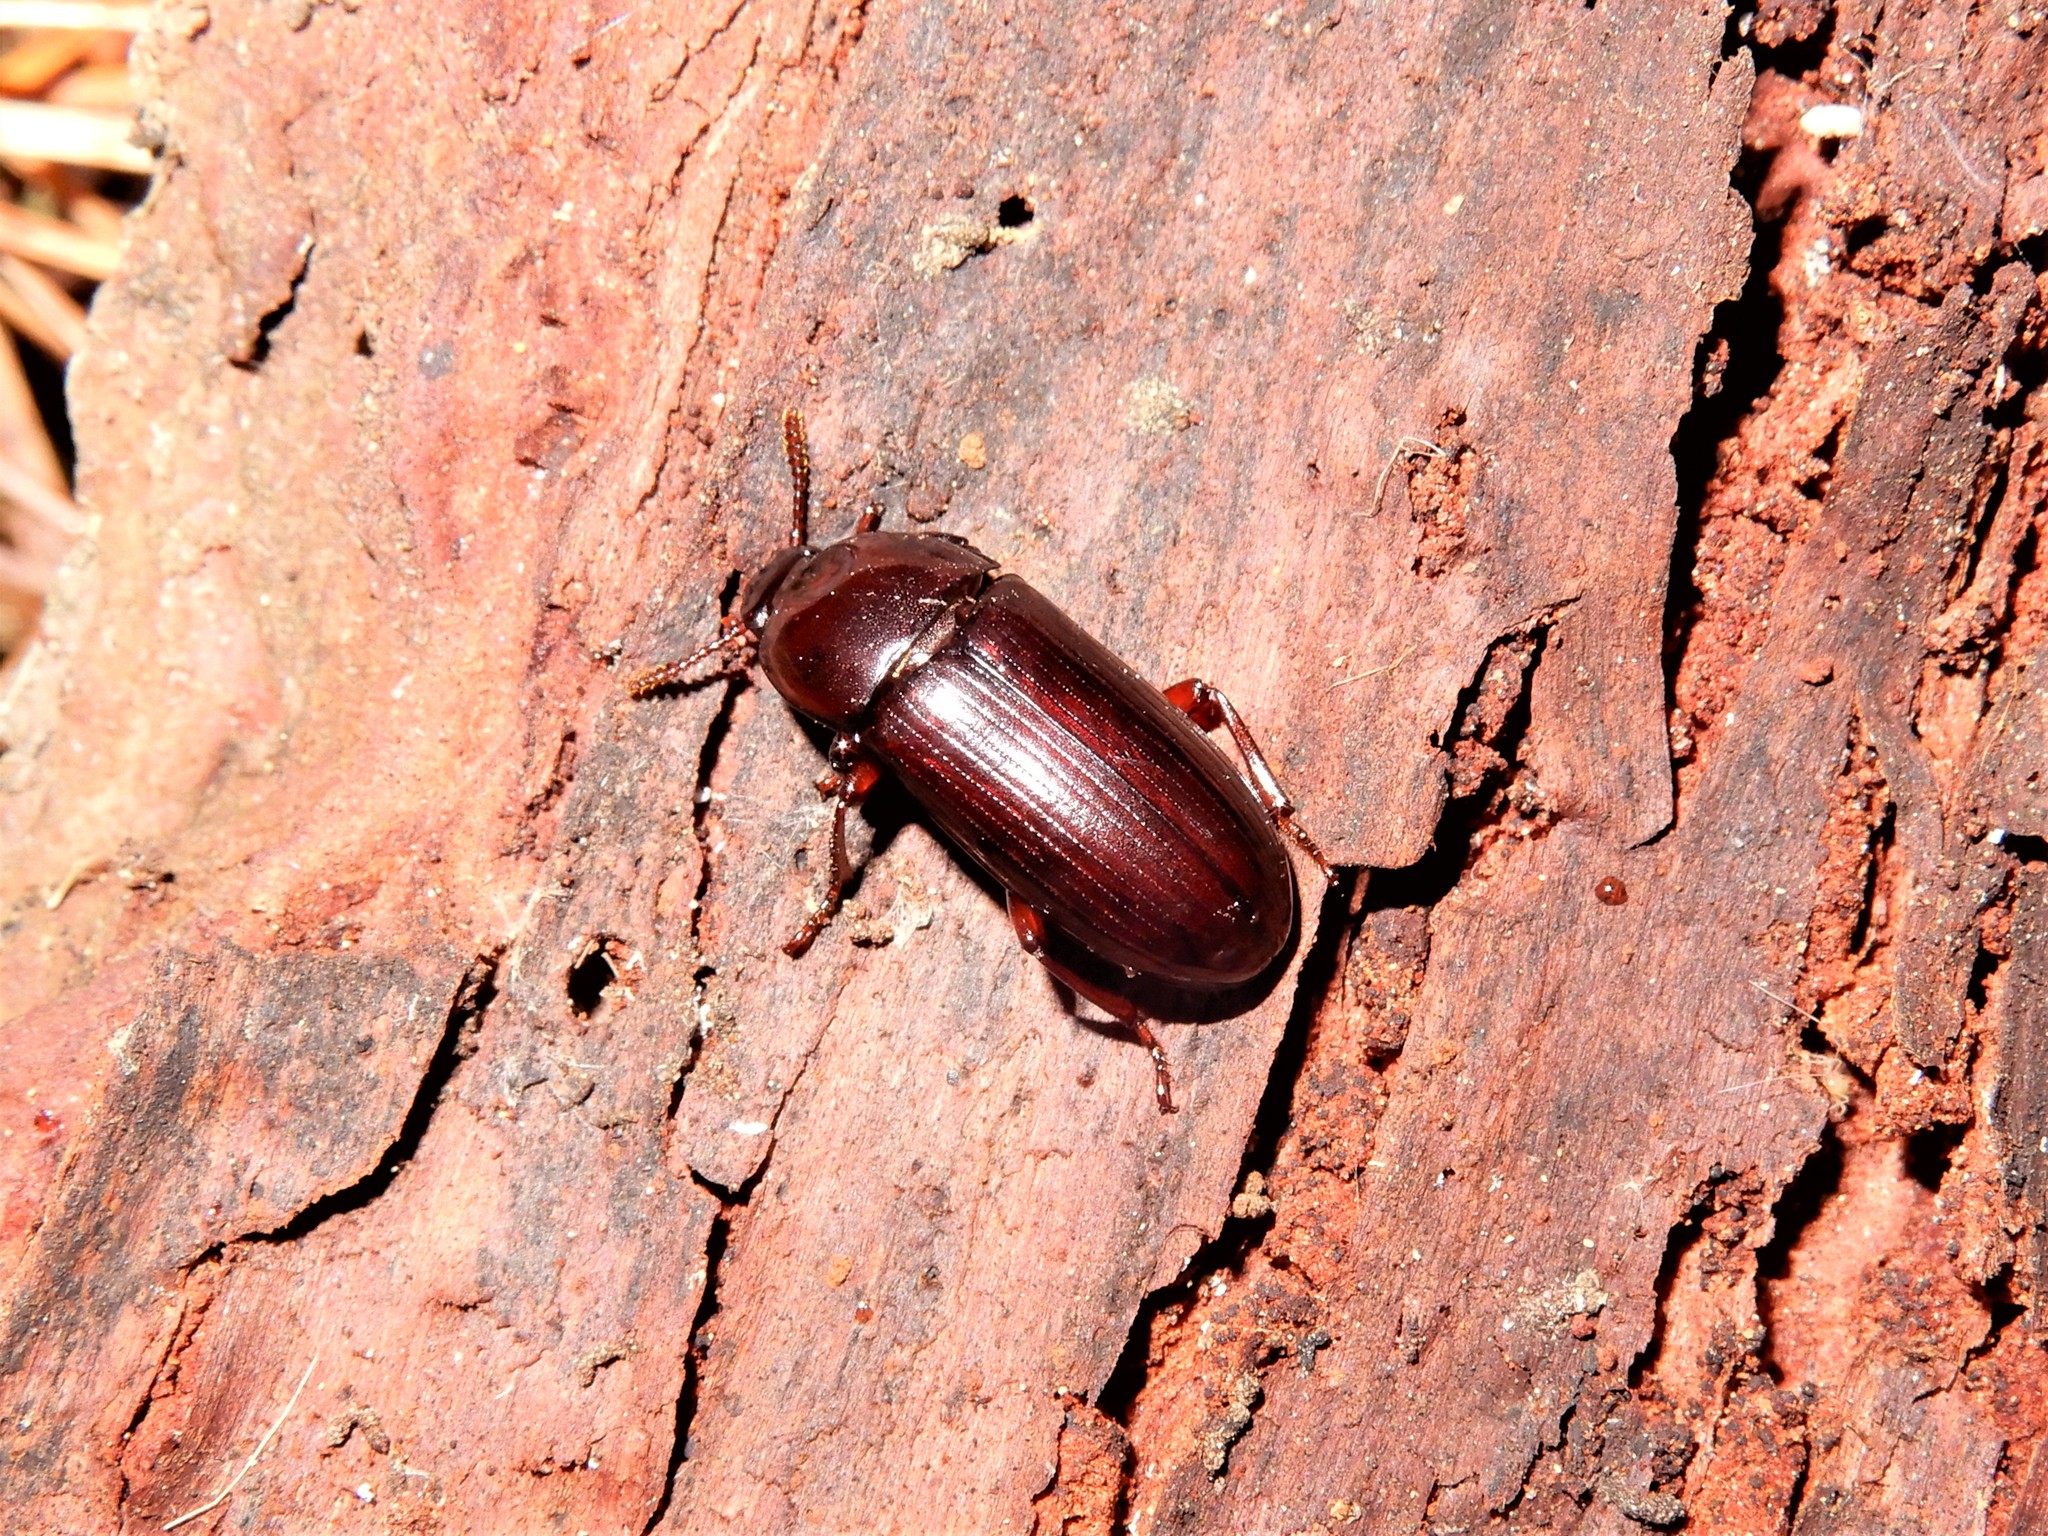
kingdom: Animalia
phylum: Arthropoda
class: Insecta
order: Coleoptera
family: Tenebrionidae
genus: Uloma
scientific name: Uloma tenebrionoides
